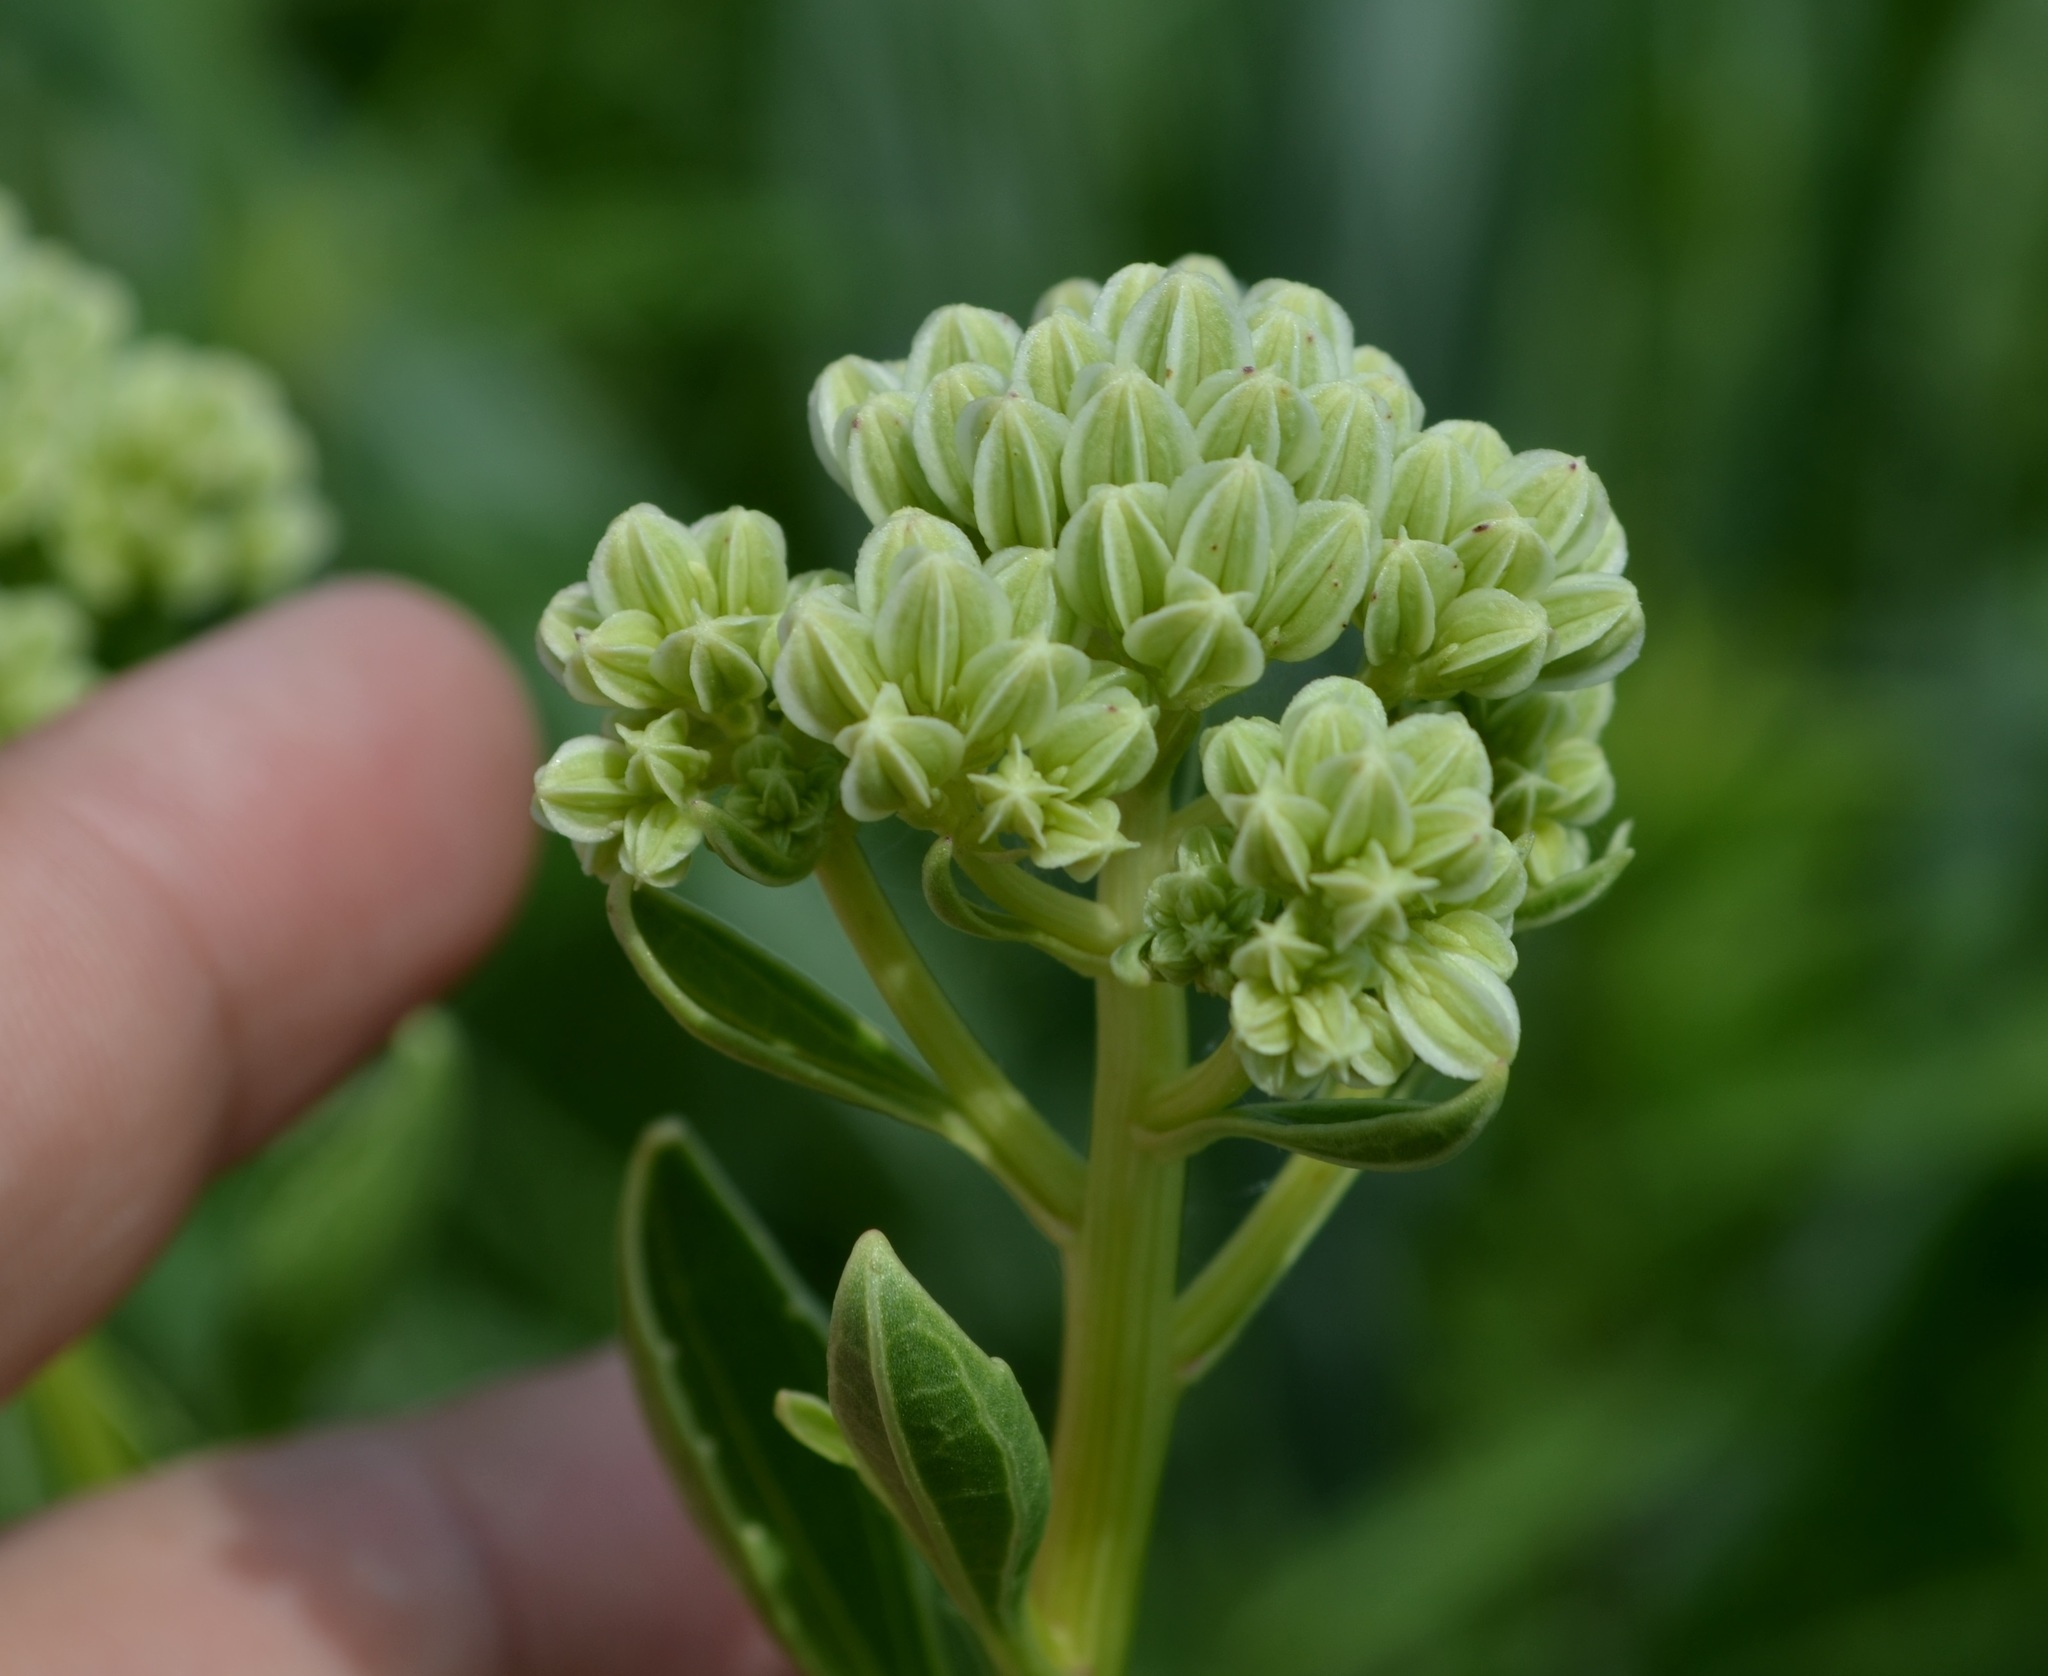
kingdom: Plantae
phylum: Tracheophyta
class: Magnoliopsida
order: Asterales
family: Asteraceae
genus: Arnoglossum
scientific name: Arnoglossum plantagineum
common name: Groove-stemmed indian-plantain
